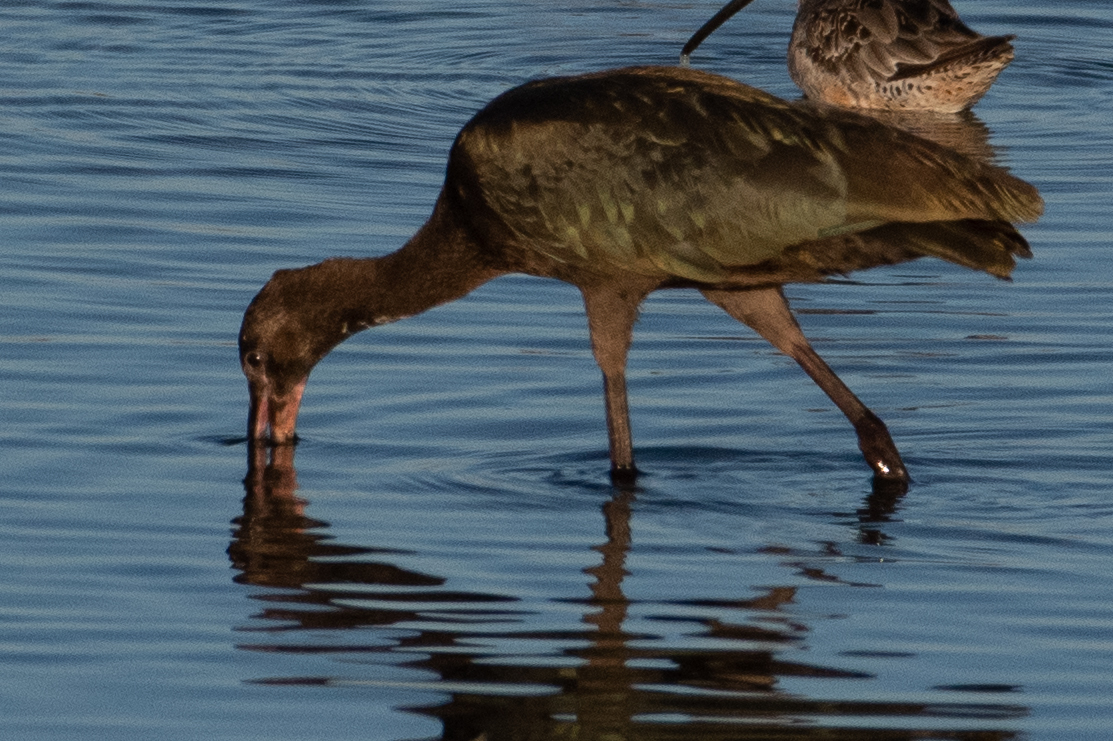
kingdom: Animalia
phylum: Chordata
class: Aves
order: Pelecaniformes
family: Threskiornithidae
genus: Plegadis
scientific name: Plegadis chihi
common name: White-faced ibis
